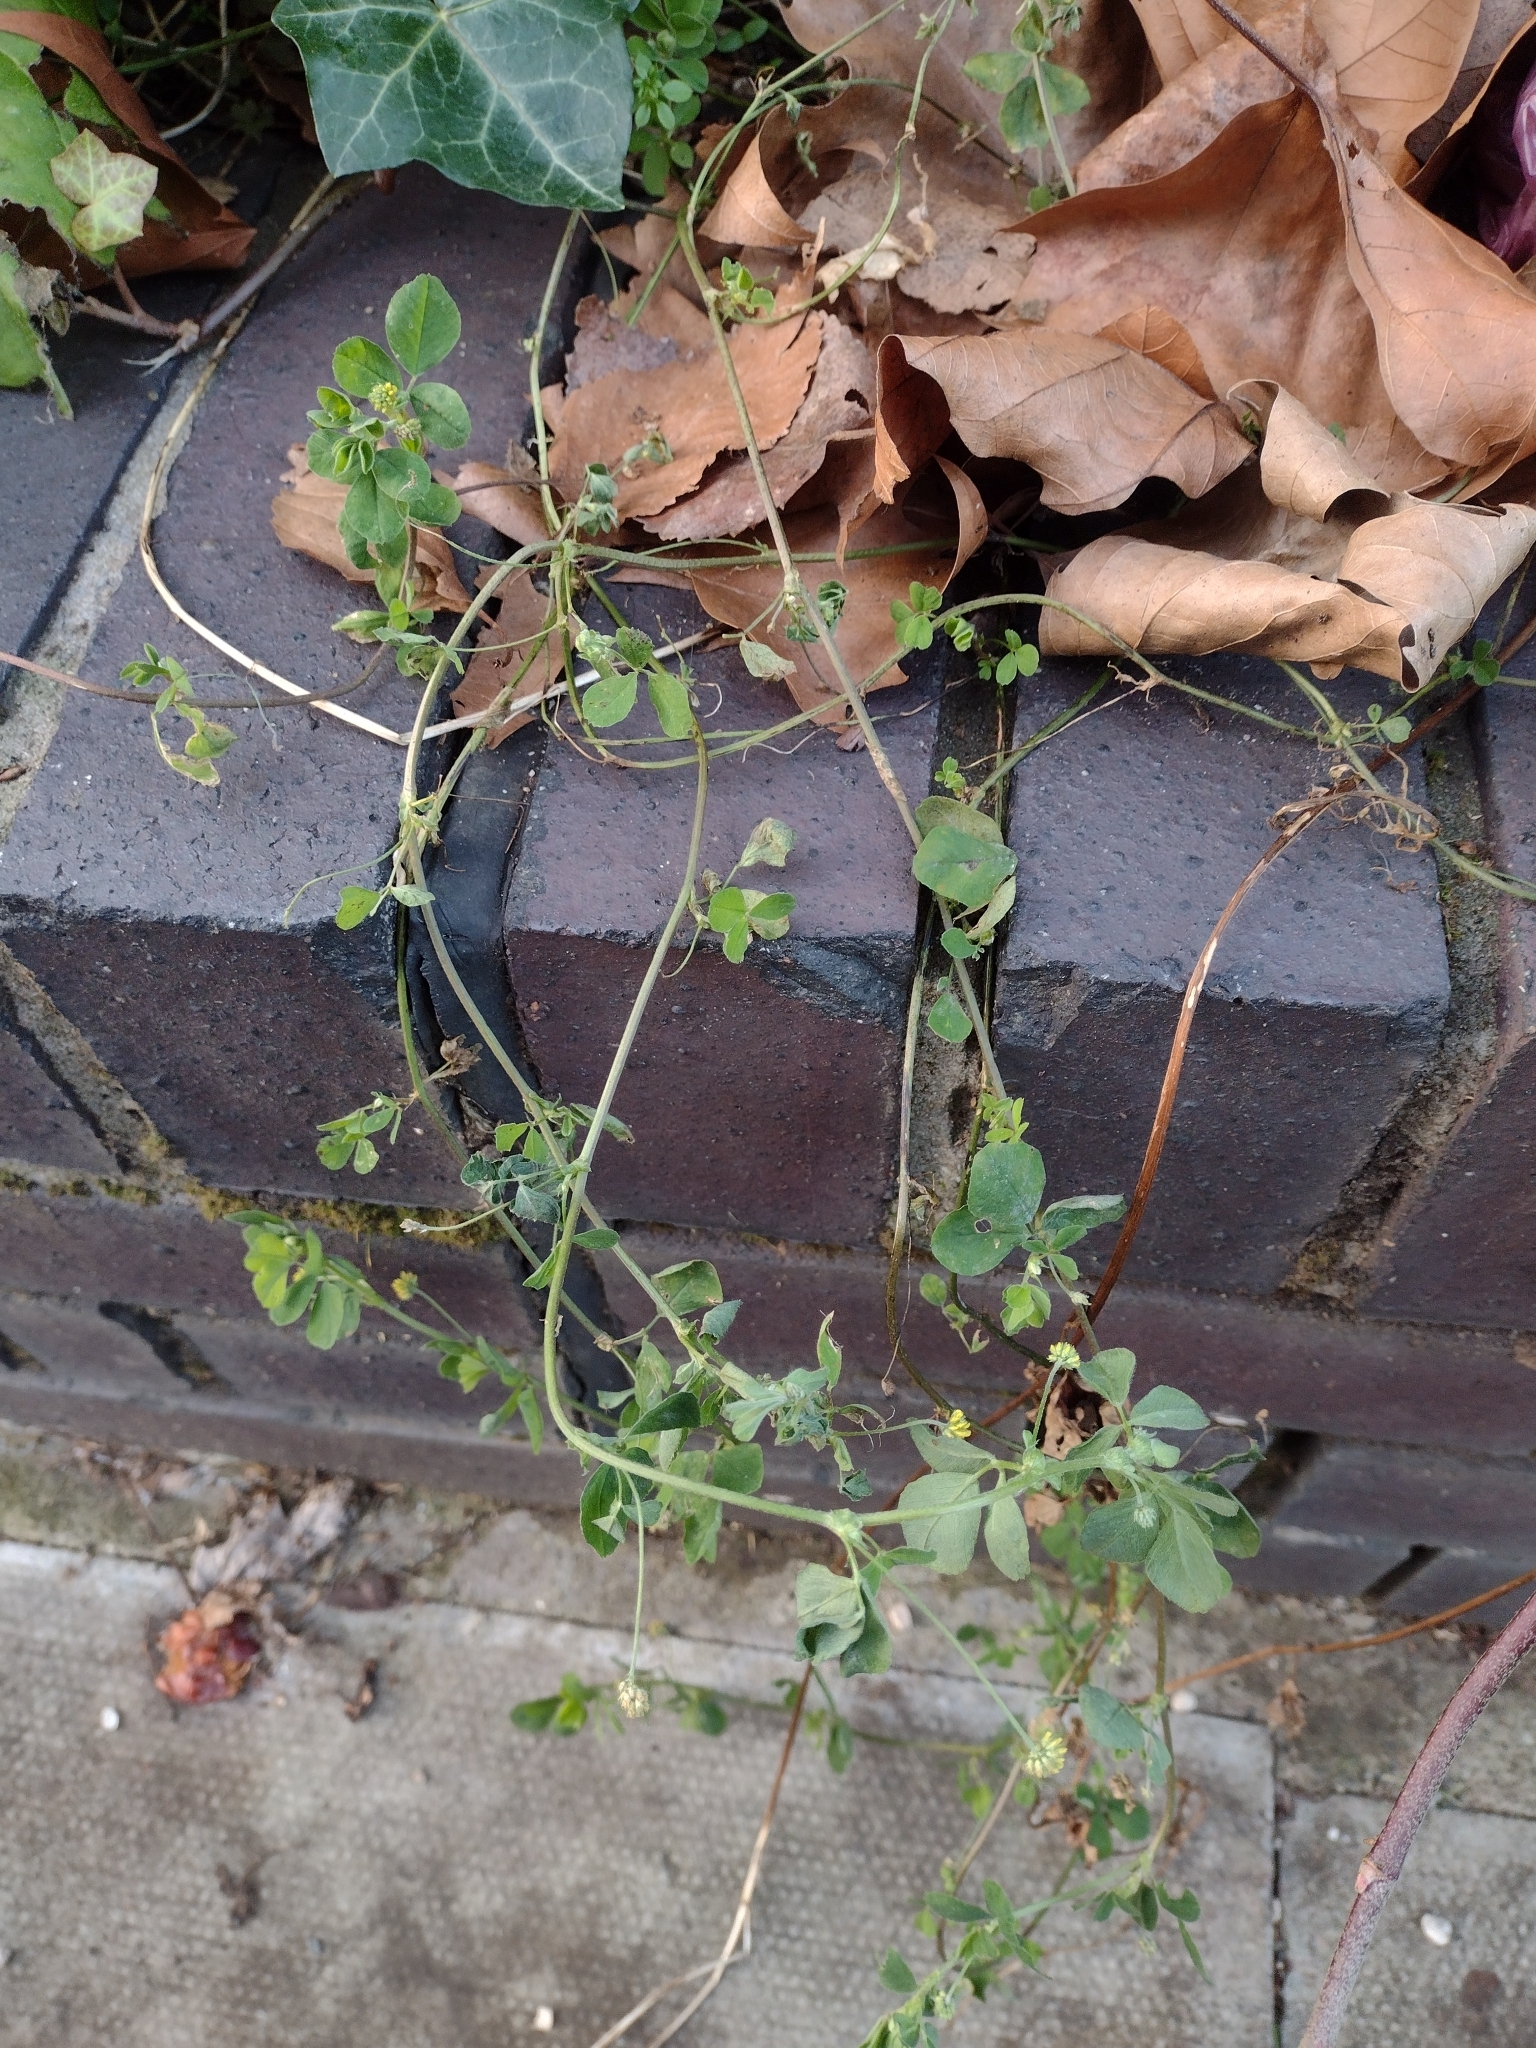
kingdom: Plantae
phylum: Tracheophyta
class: Magnoliopsida
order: Fabales
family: Fabaceae
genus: Medicago
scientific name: Medicago lupulina
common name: Black medick
